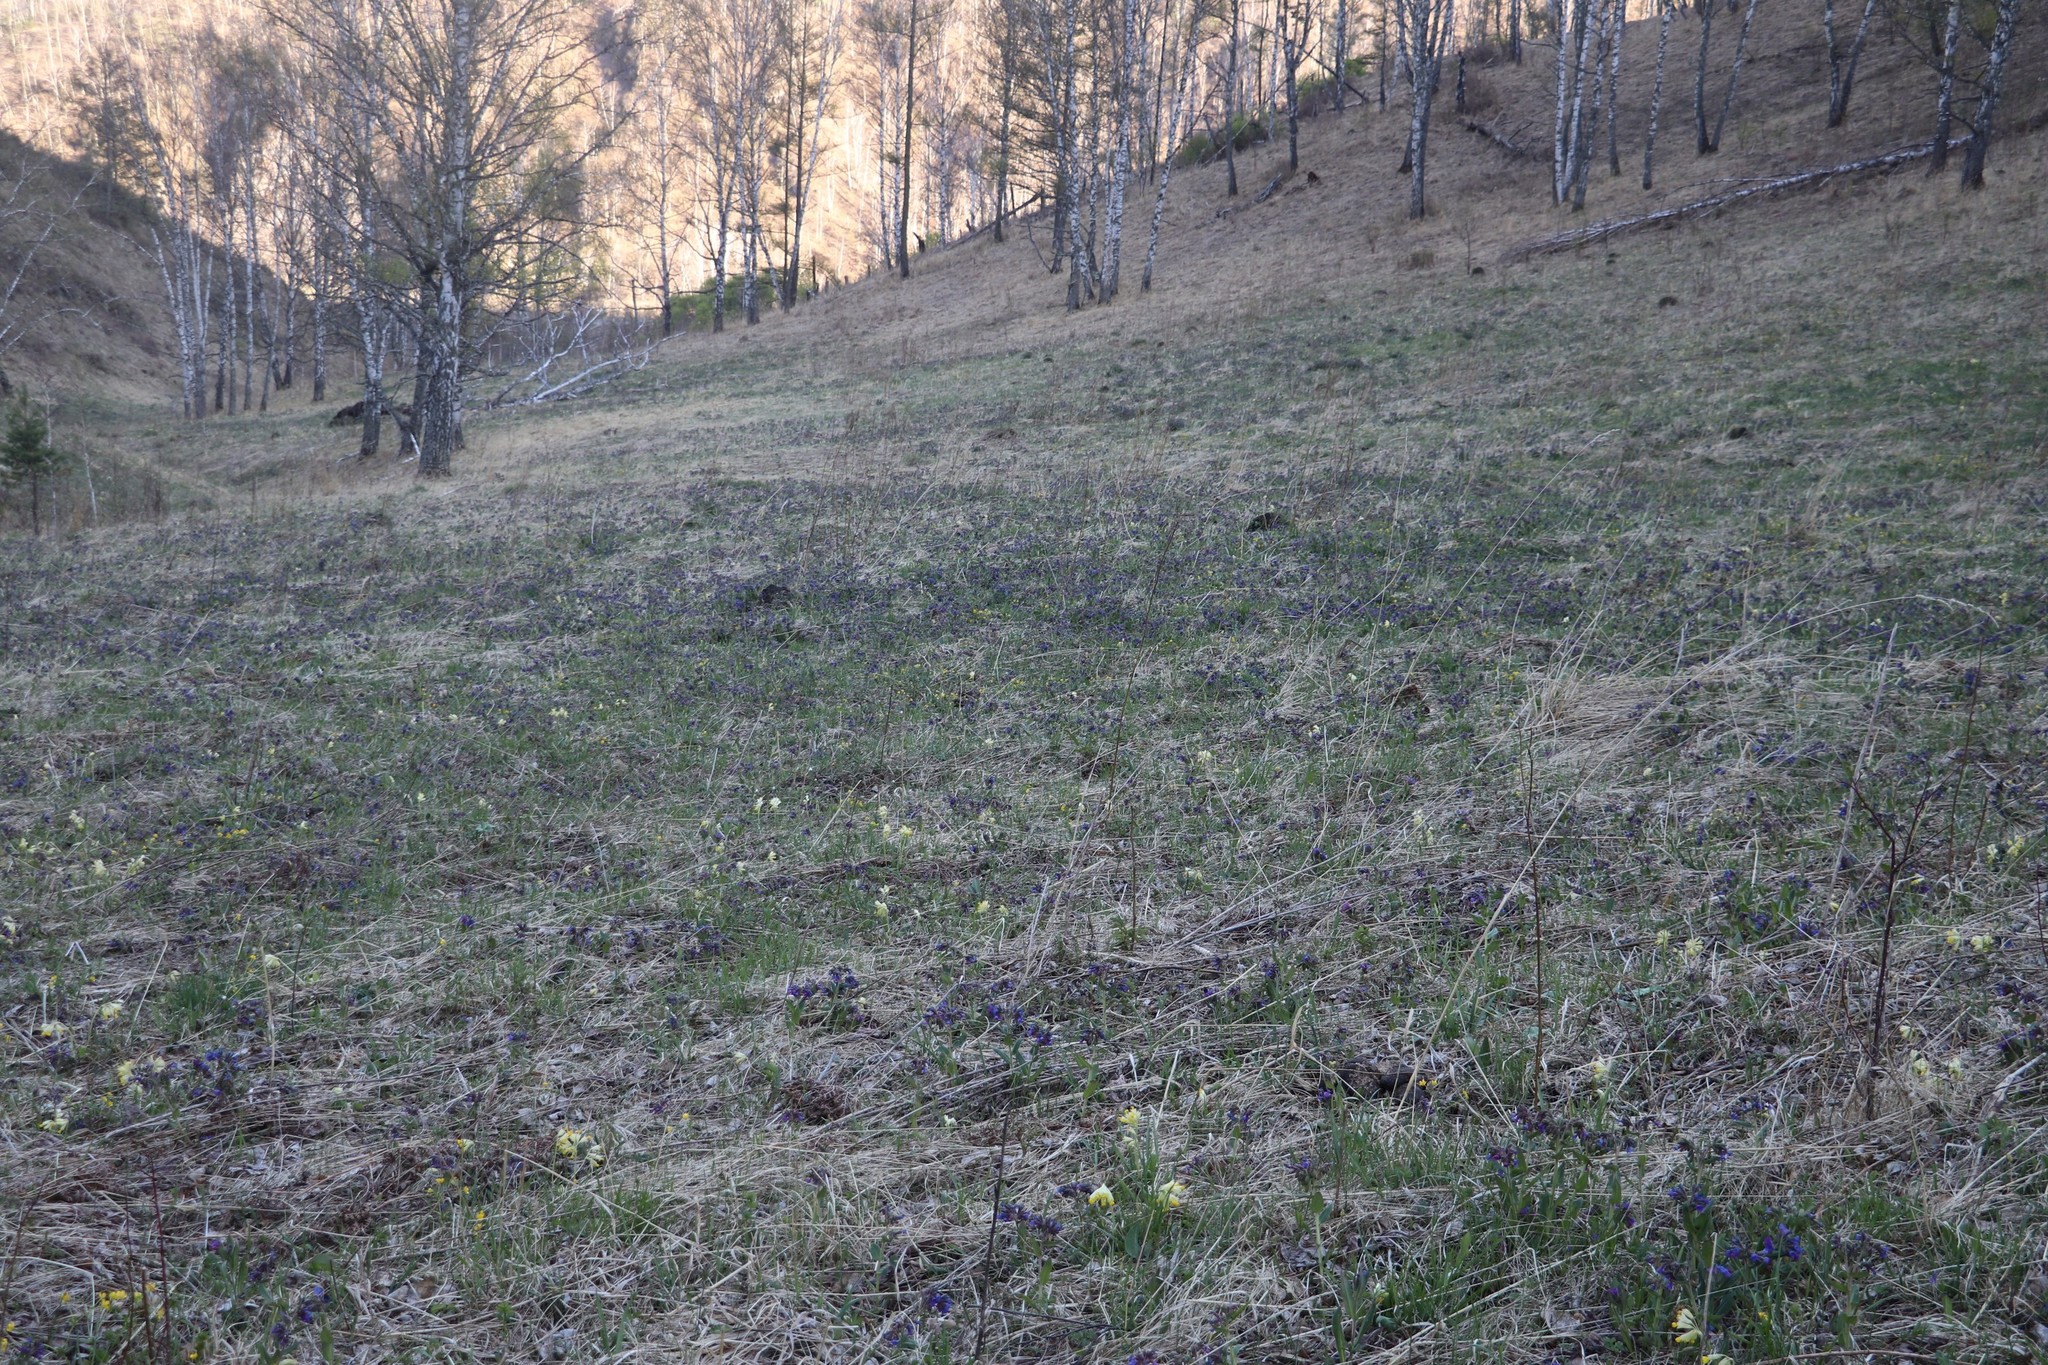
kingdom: Plantae
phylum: Tracheophyta
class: Magnoliopsida
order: Boraginales
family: Boraginaceae
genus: Pulmonaria
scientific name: Pulmonaria mollis
